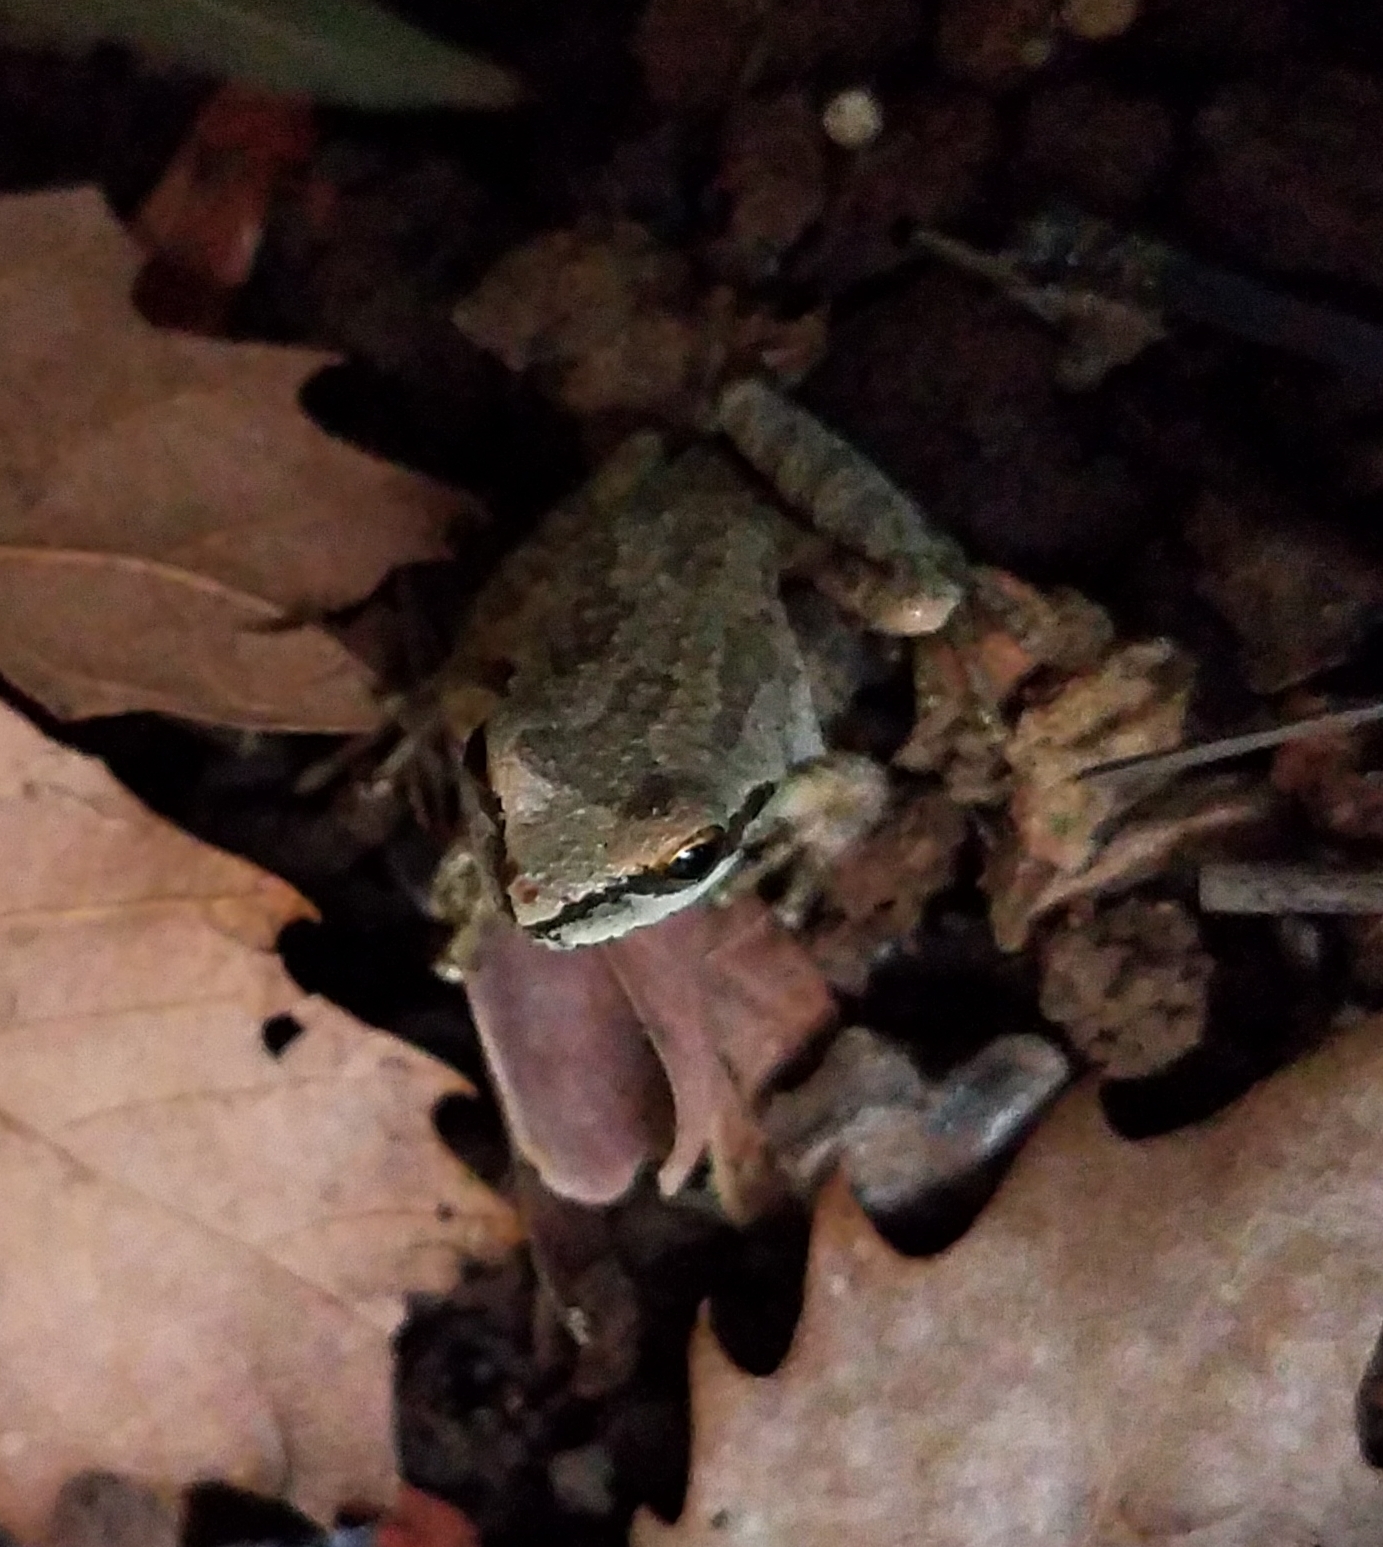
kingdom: Animalia
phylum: Chordata
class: Amphibia
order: Anura
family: Hylidae
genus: Pseudacris
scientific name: Pseudacris regilla
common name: Pacific chorus frog
